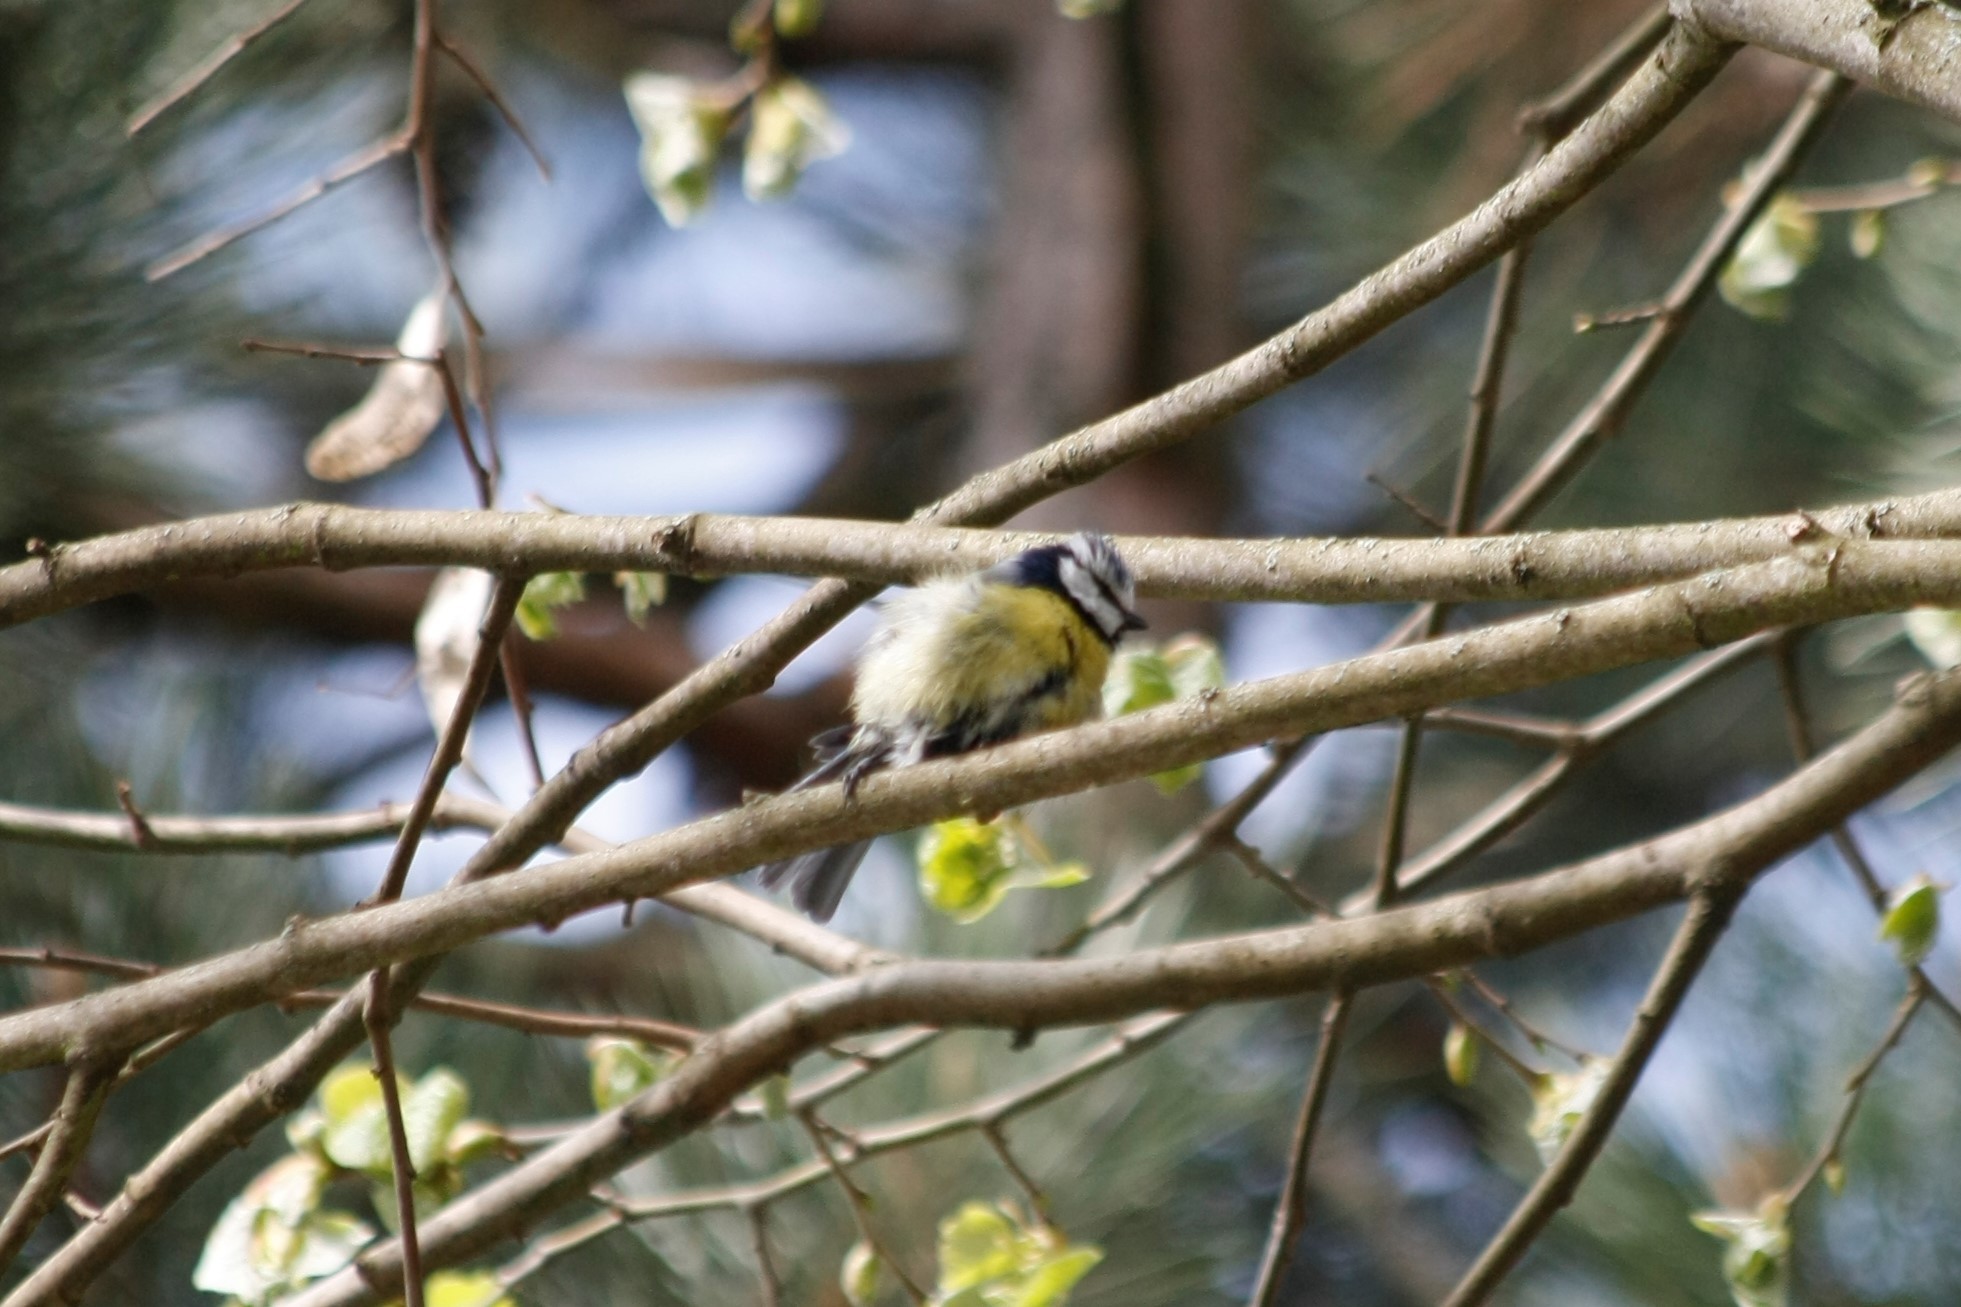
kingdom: Animalia
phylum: Chordata
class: Aves
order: Passeriformes
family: Paridae
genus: Cyanistes
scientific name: Cyanistes caeruleus
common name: Eurasian blue tit
